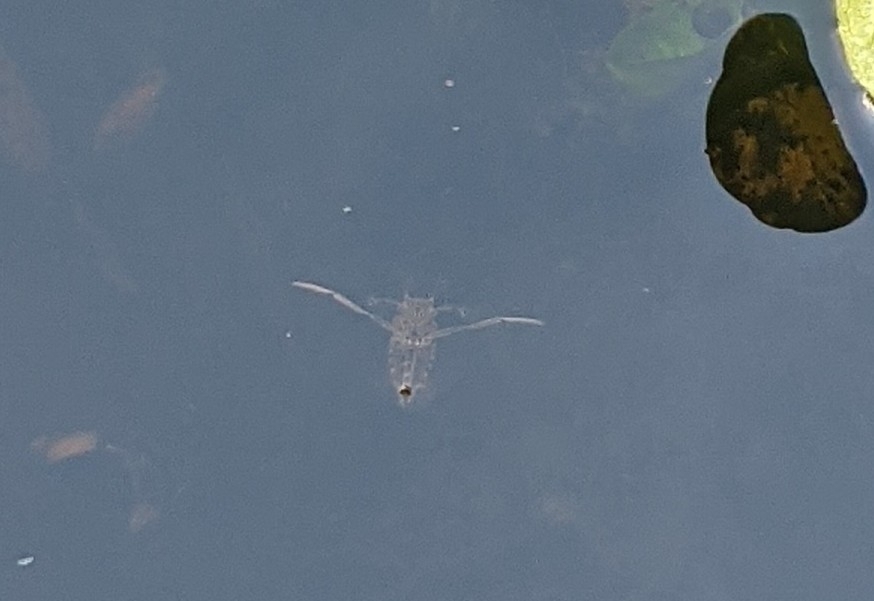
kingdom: Animalia
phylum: Arthropoda
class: Insecta
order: Hemiptera
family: Notonectidae
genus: Notonecta
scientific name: Notonecta
